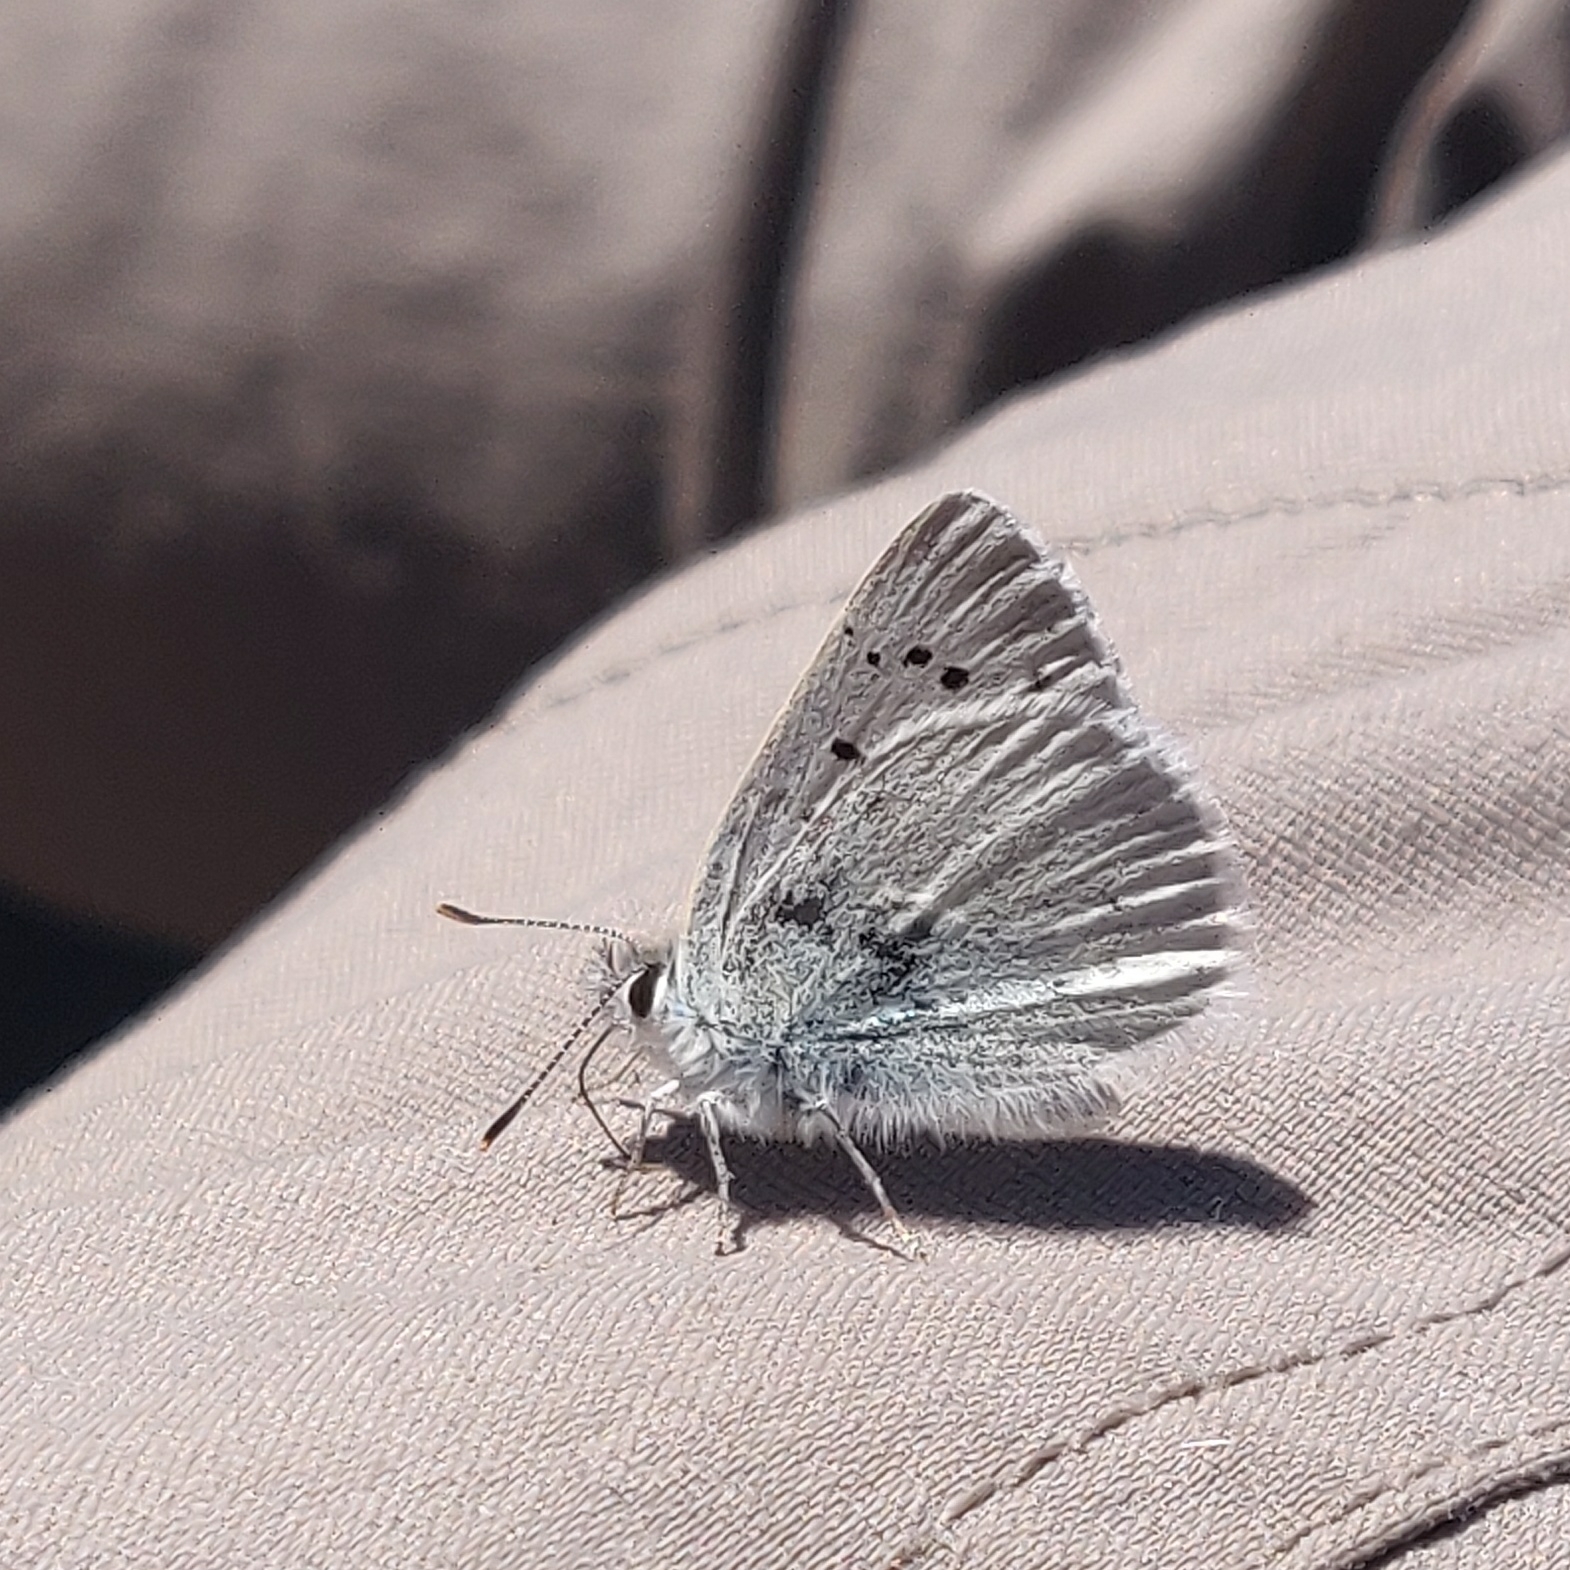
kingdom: Animalia
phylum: Arthropoda
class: Insecta
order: Lepidoptera
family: Lycaenidae
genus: Tharsalea
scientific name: Tharsalea heteronea
